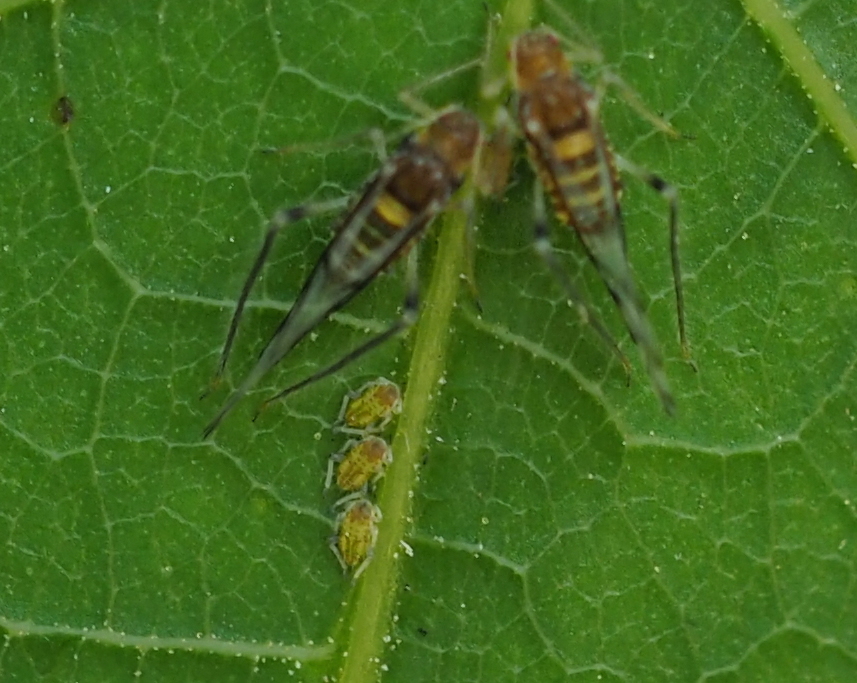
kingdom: Animalia
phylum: Arthropoda
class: Insecta
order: Hemiptera
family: Aphididae
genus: Panaphis
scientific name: Panaphis juglandis
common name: Large walnut aphid
